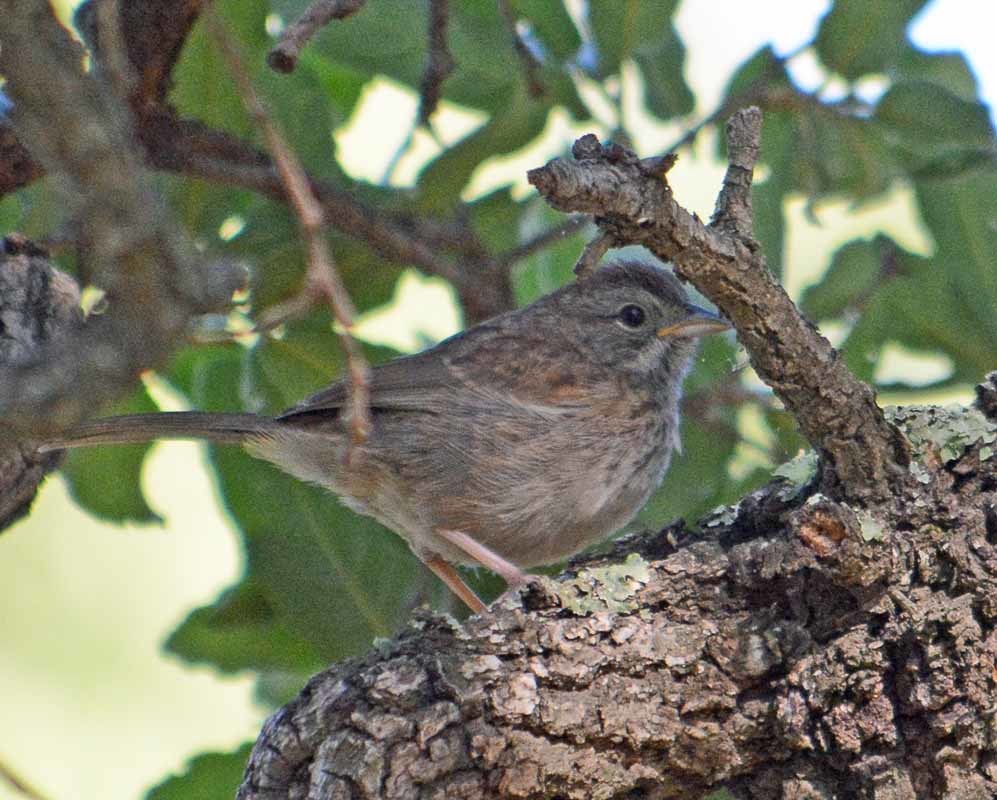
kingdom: Animalia
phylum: Chordata
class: Aves
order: Passeriformes
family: Passerellidae
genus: Aimophila
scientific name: Aimophila ruficeps
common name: Rufous-crowned sparrow
